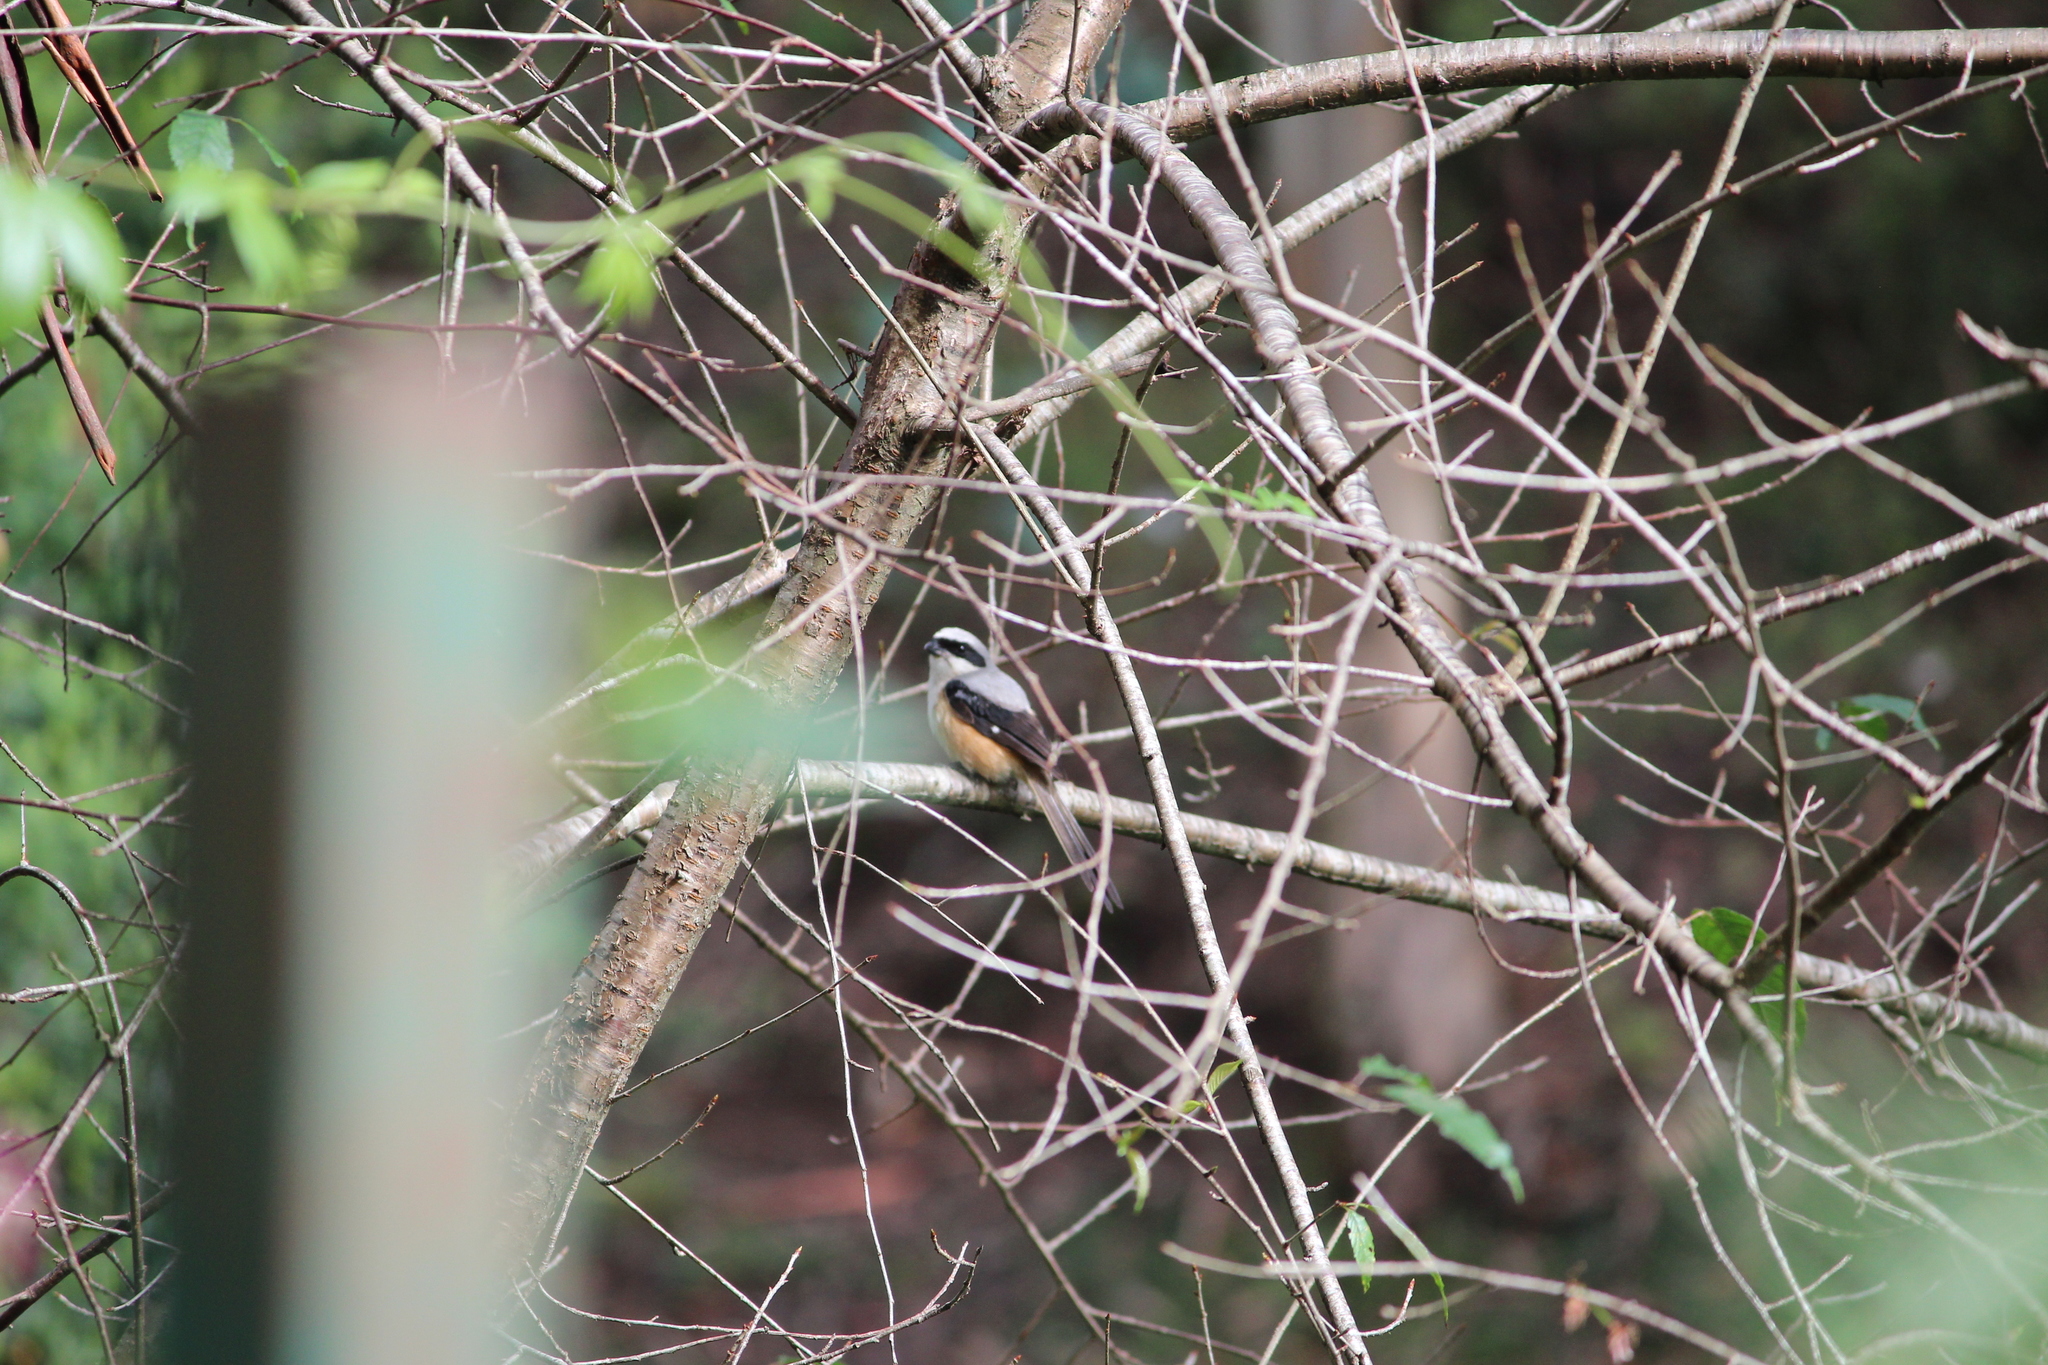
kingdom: Animalia
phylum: Chordata
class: Aves
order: Passeriformes
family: Laniidae
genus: Lanius
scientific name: Lanius schach
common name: Long-tailed shrike
